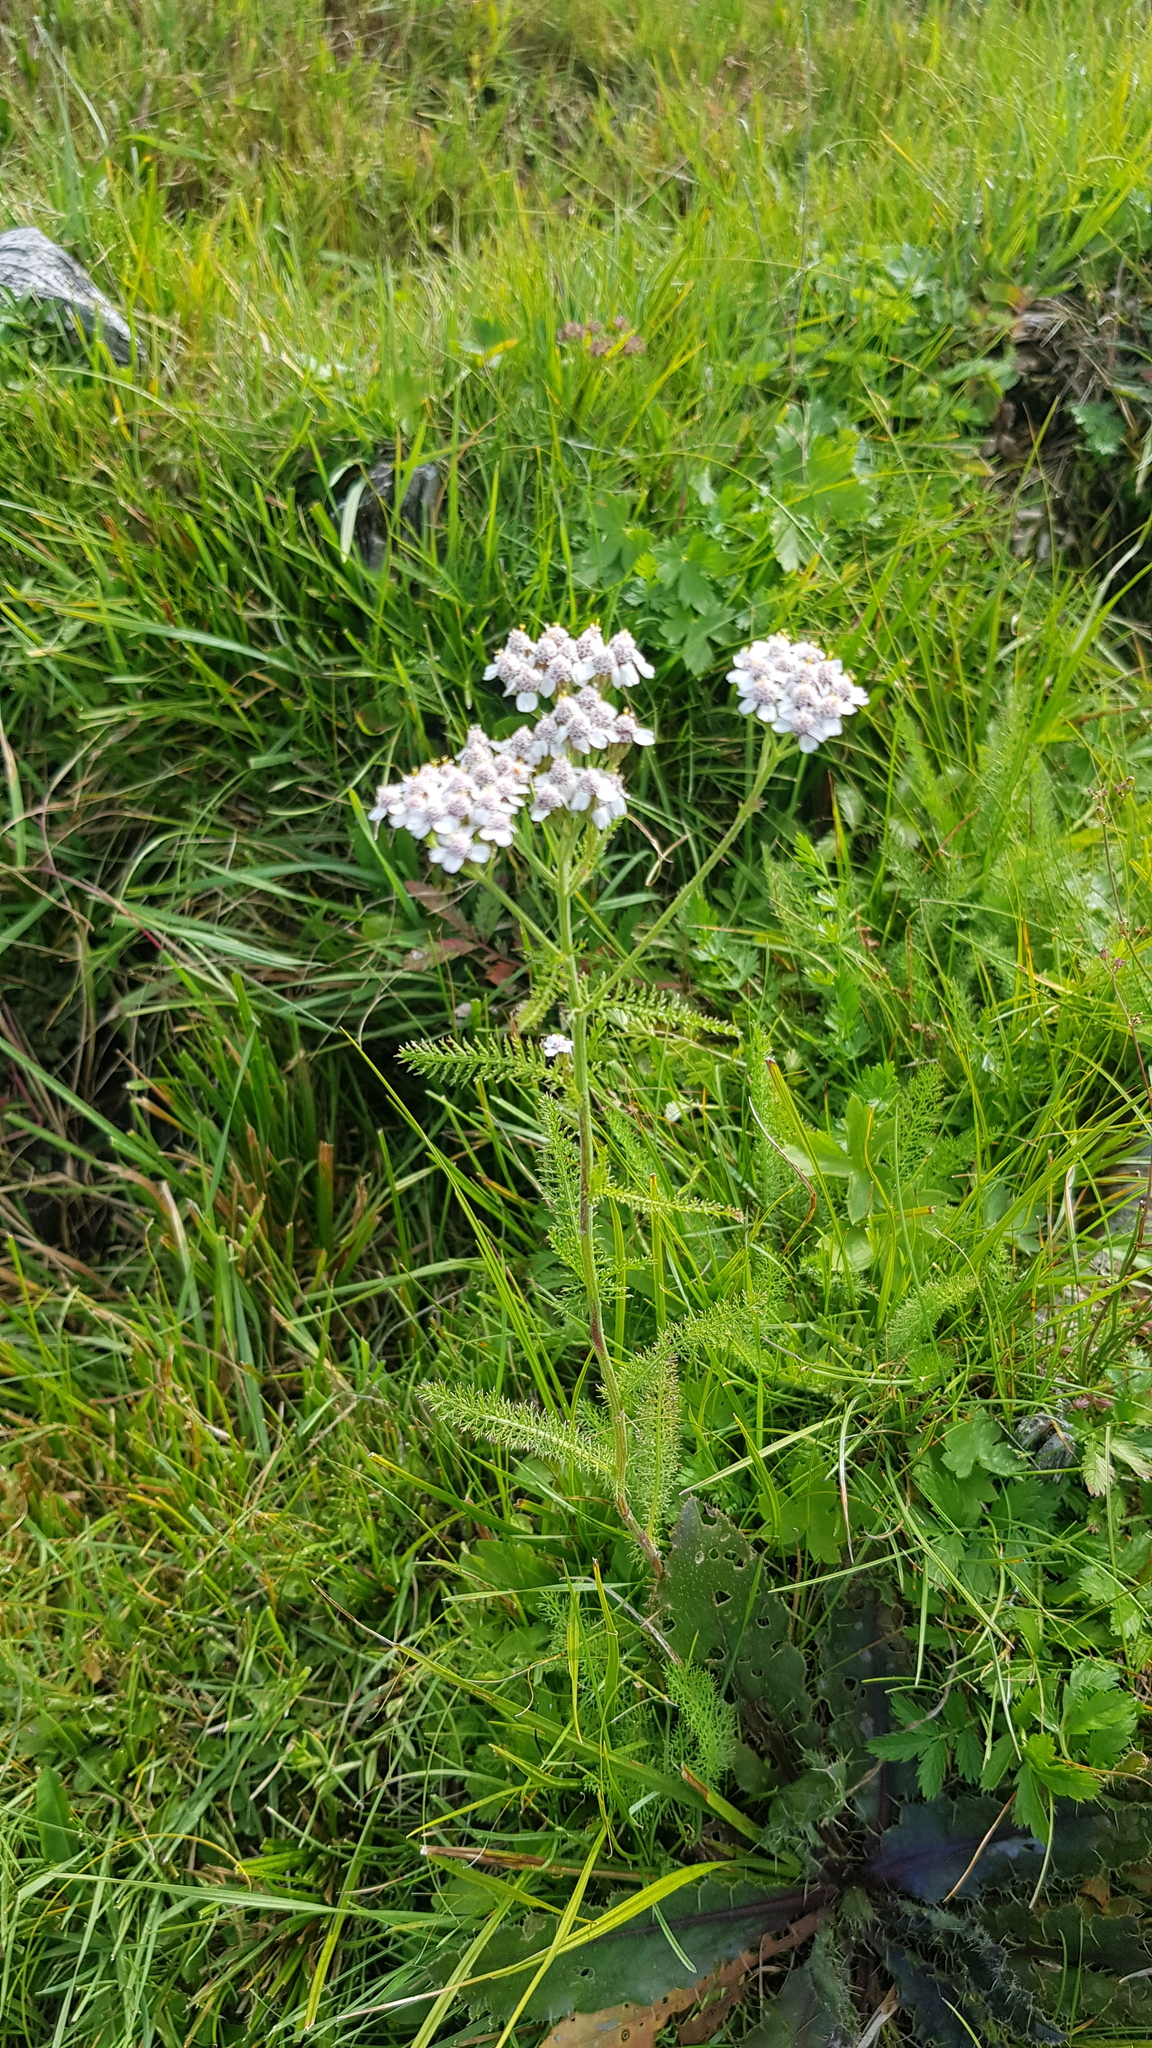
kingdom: Plantae
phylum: Tracheophyta
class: Magnoliopsida
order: Asterales
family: Asteraceae
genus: Achillea
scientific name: Achillea asiatica
